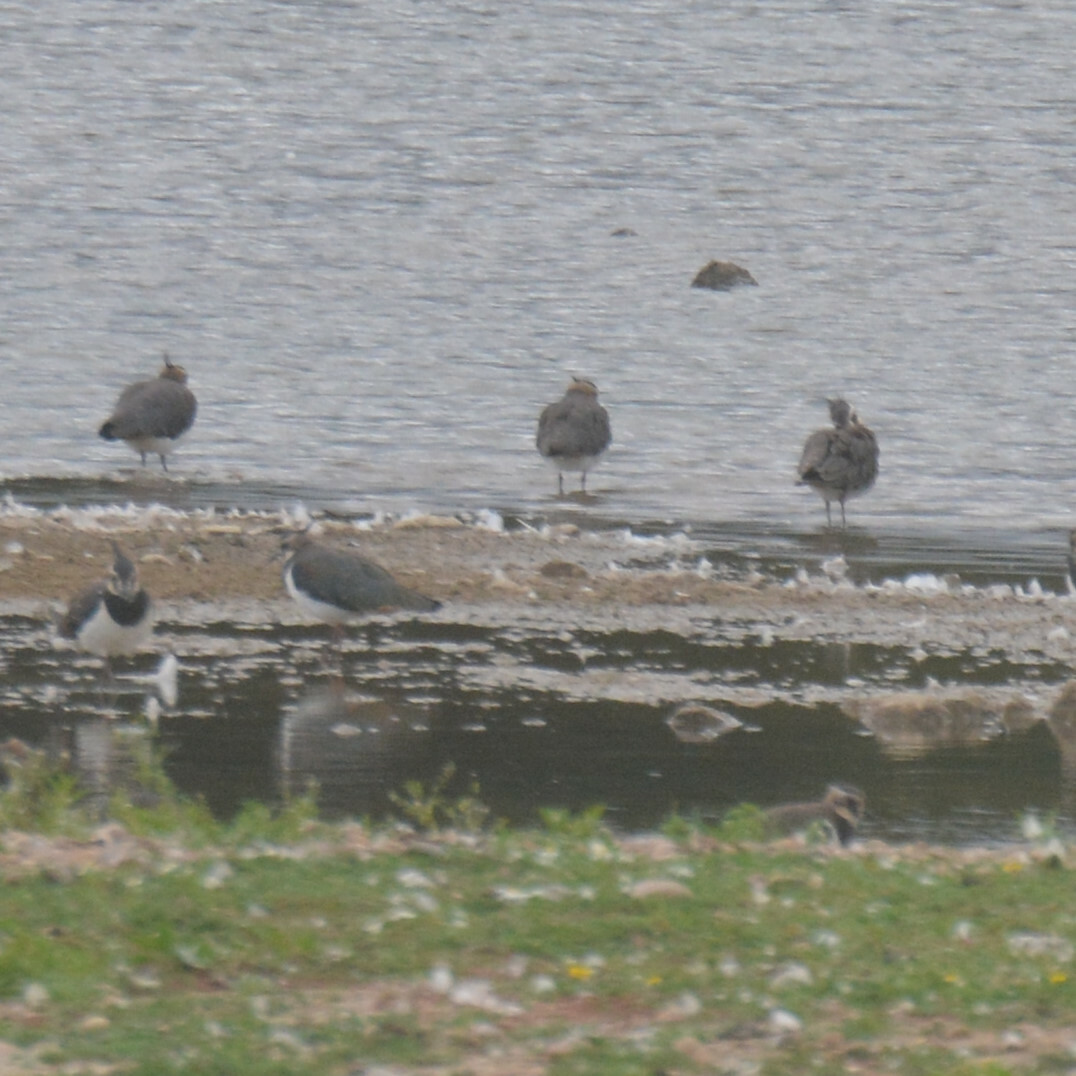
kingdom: Animalia
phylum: Chordata
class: Aves
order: Charadriiformes
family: Charadriidae
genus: Vanellus
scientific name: Vanellus vanellus
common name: Northern lapwing
